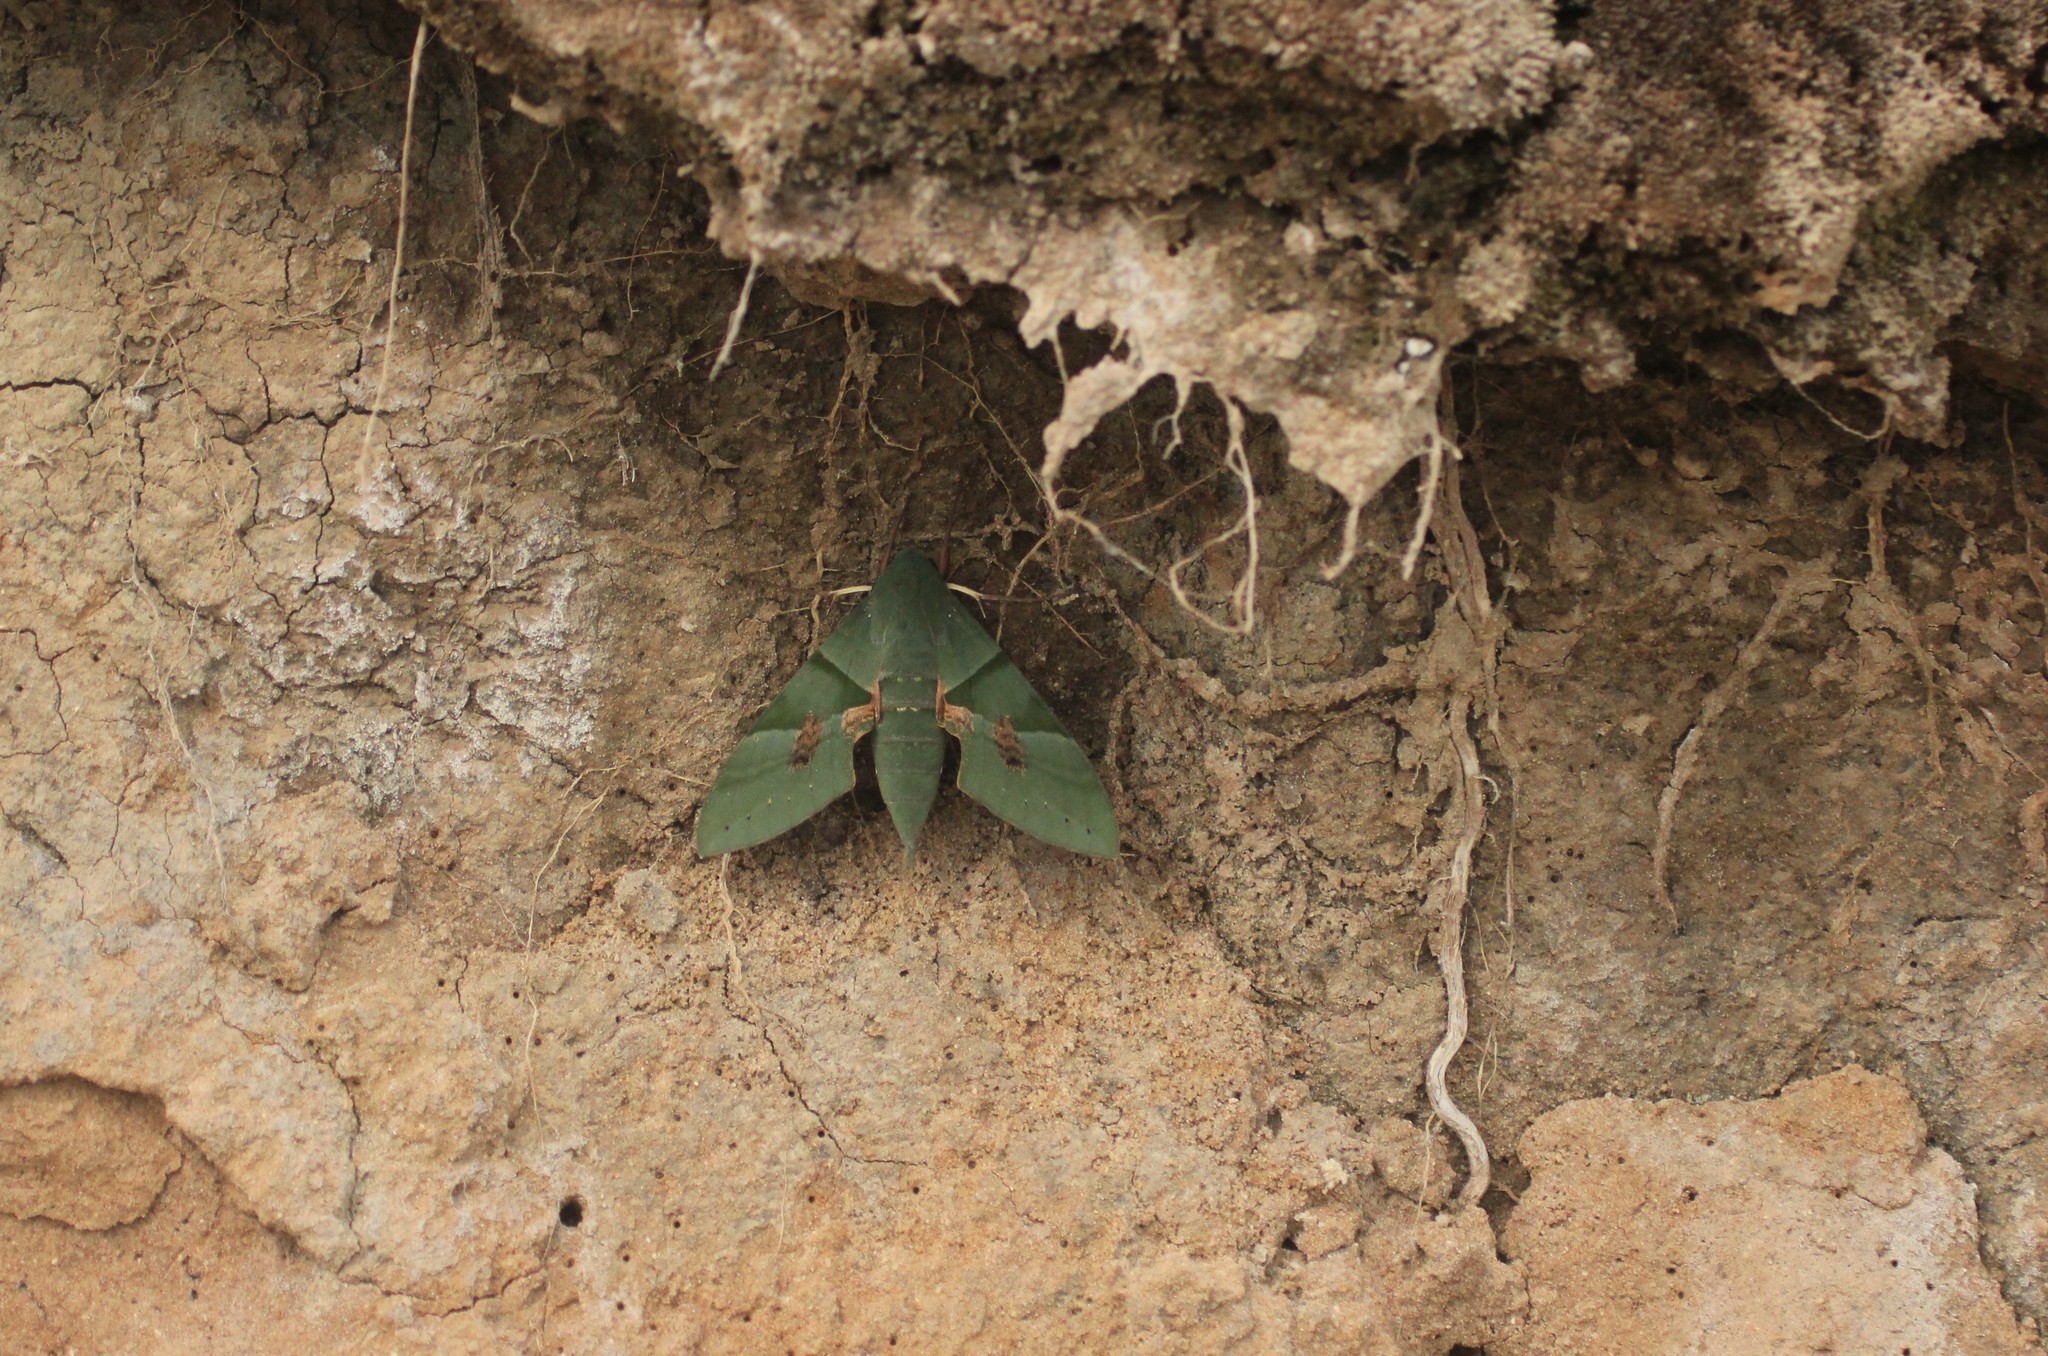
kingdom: Animalia
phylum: Arthropoda
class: Insecta
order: Lepidoptera
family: Sphingidae
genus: Eumorpha
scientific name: Eumorpha labruscae
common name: Gaudy sphinx
